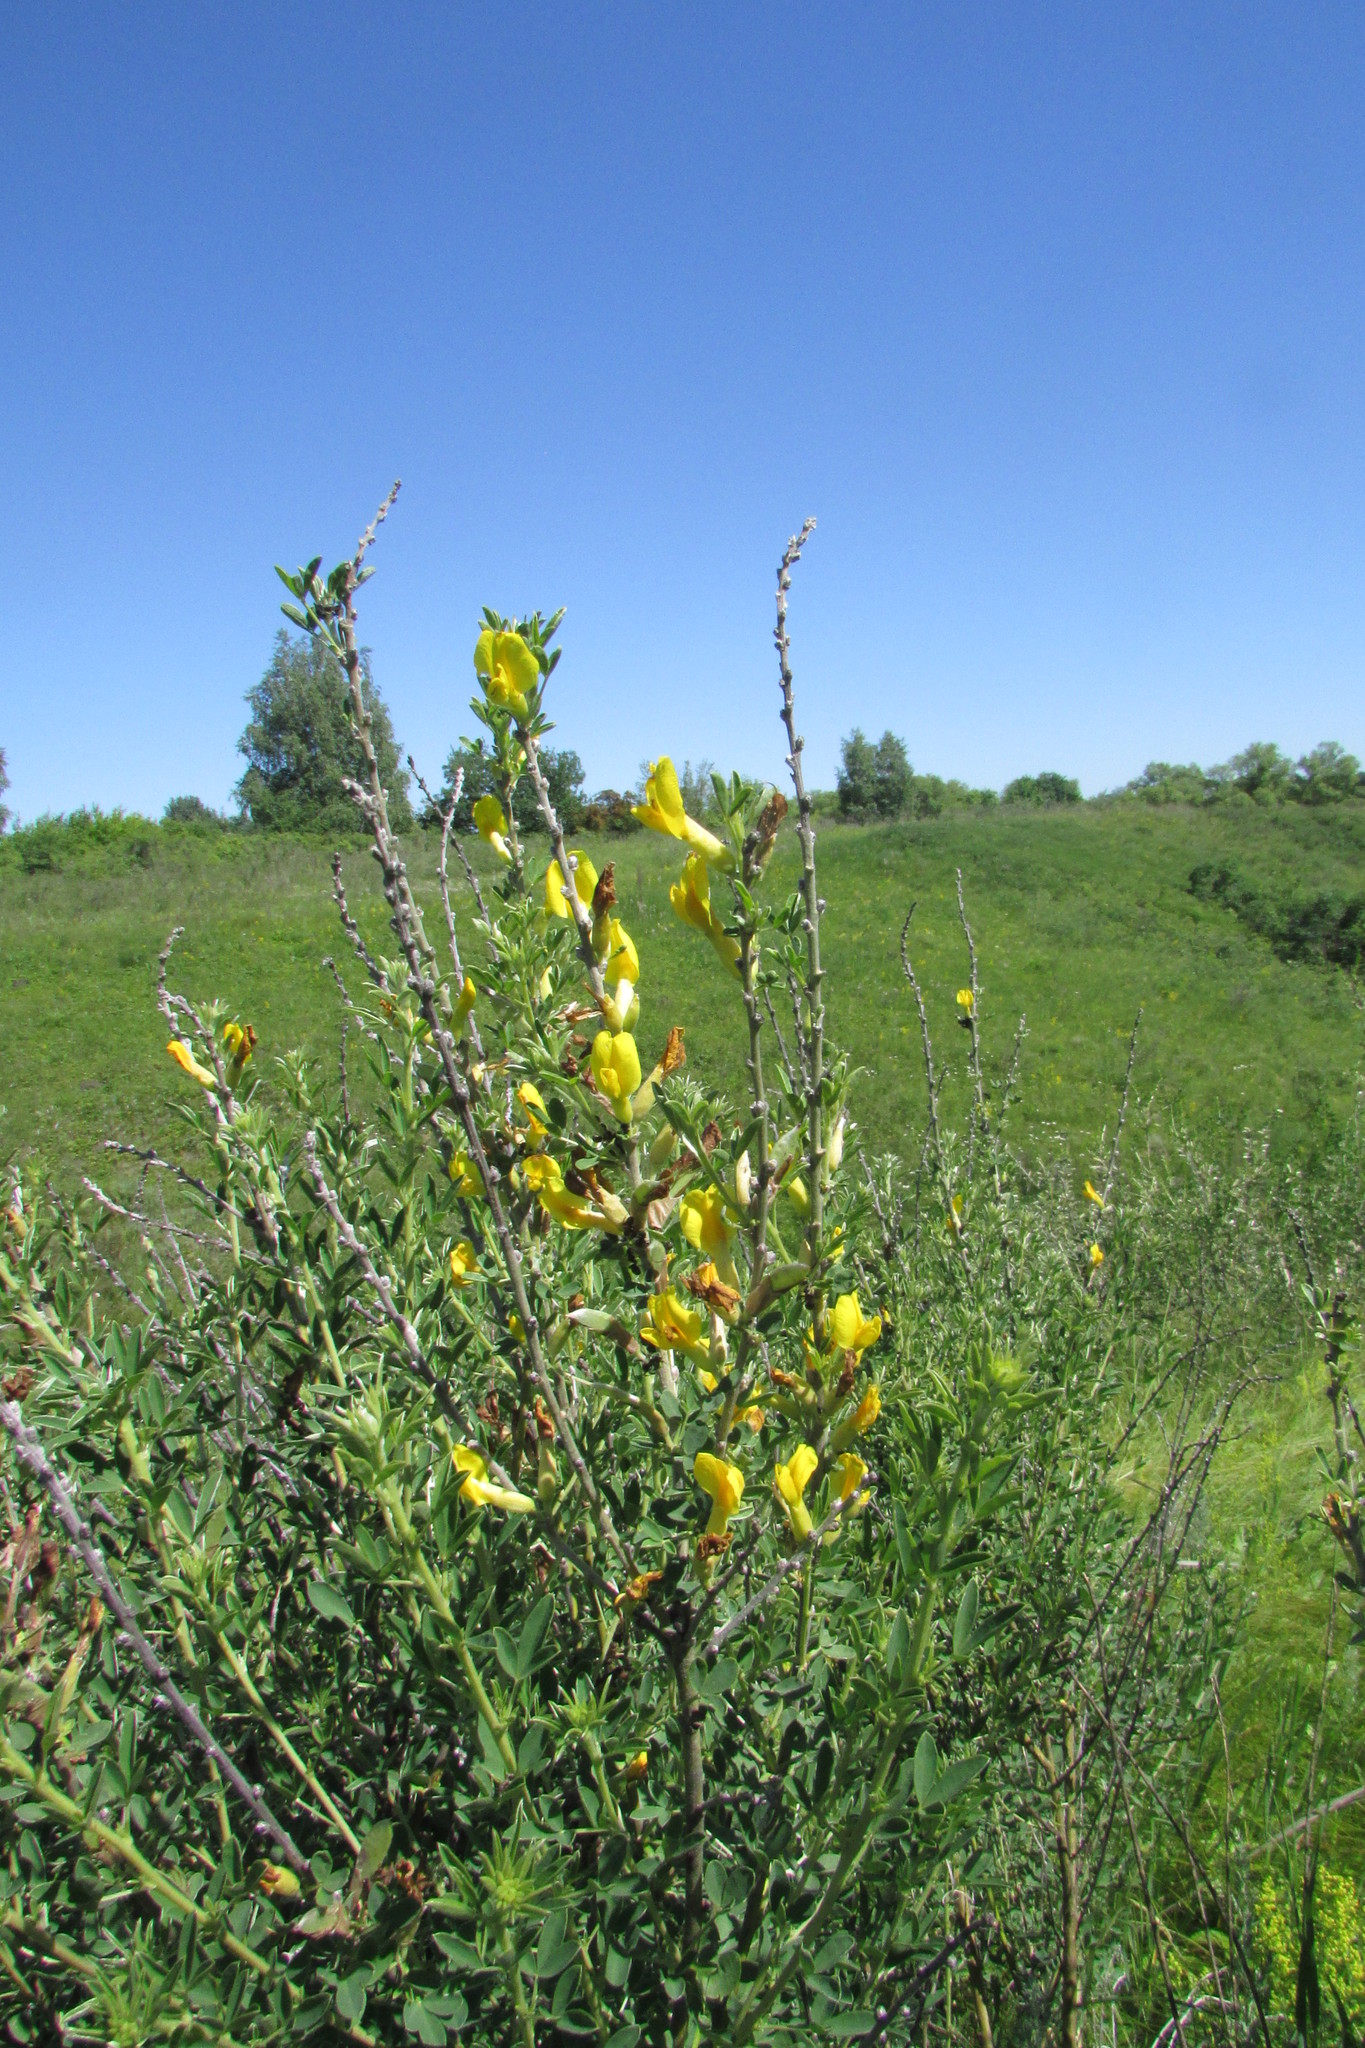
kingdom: Plantae
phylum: Tracheophyta
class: Magnoliopsida
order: Fabales
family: Fabaceae
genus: Chamaecytisus
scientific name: Chamaecytisus ruthenicus
